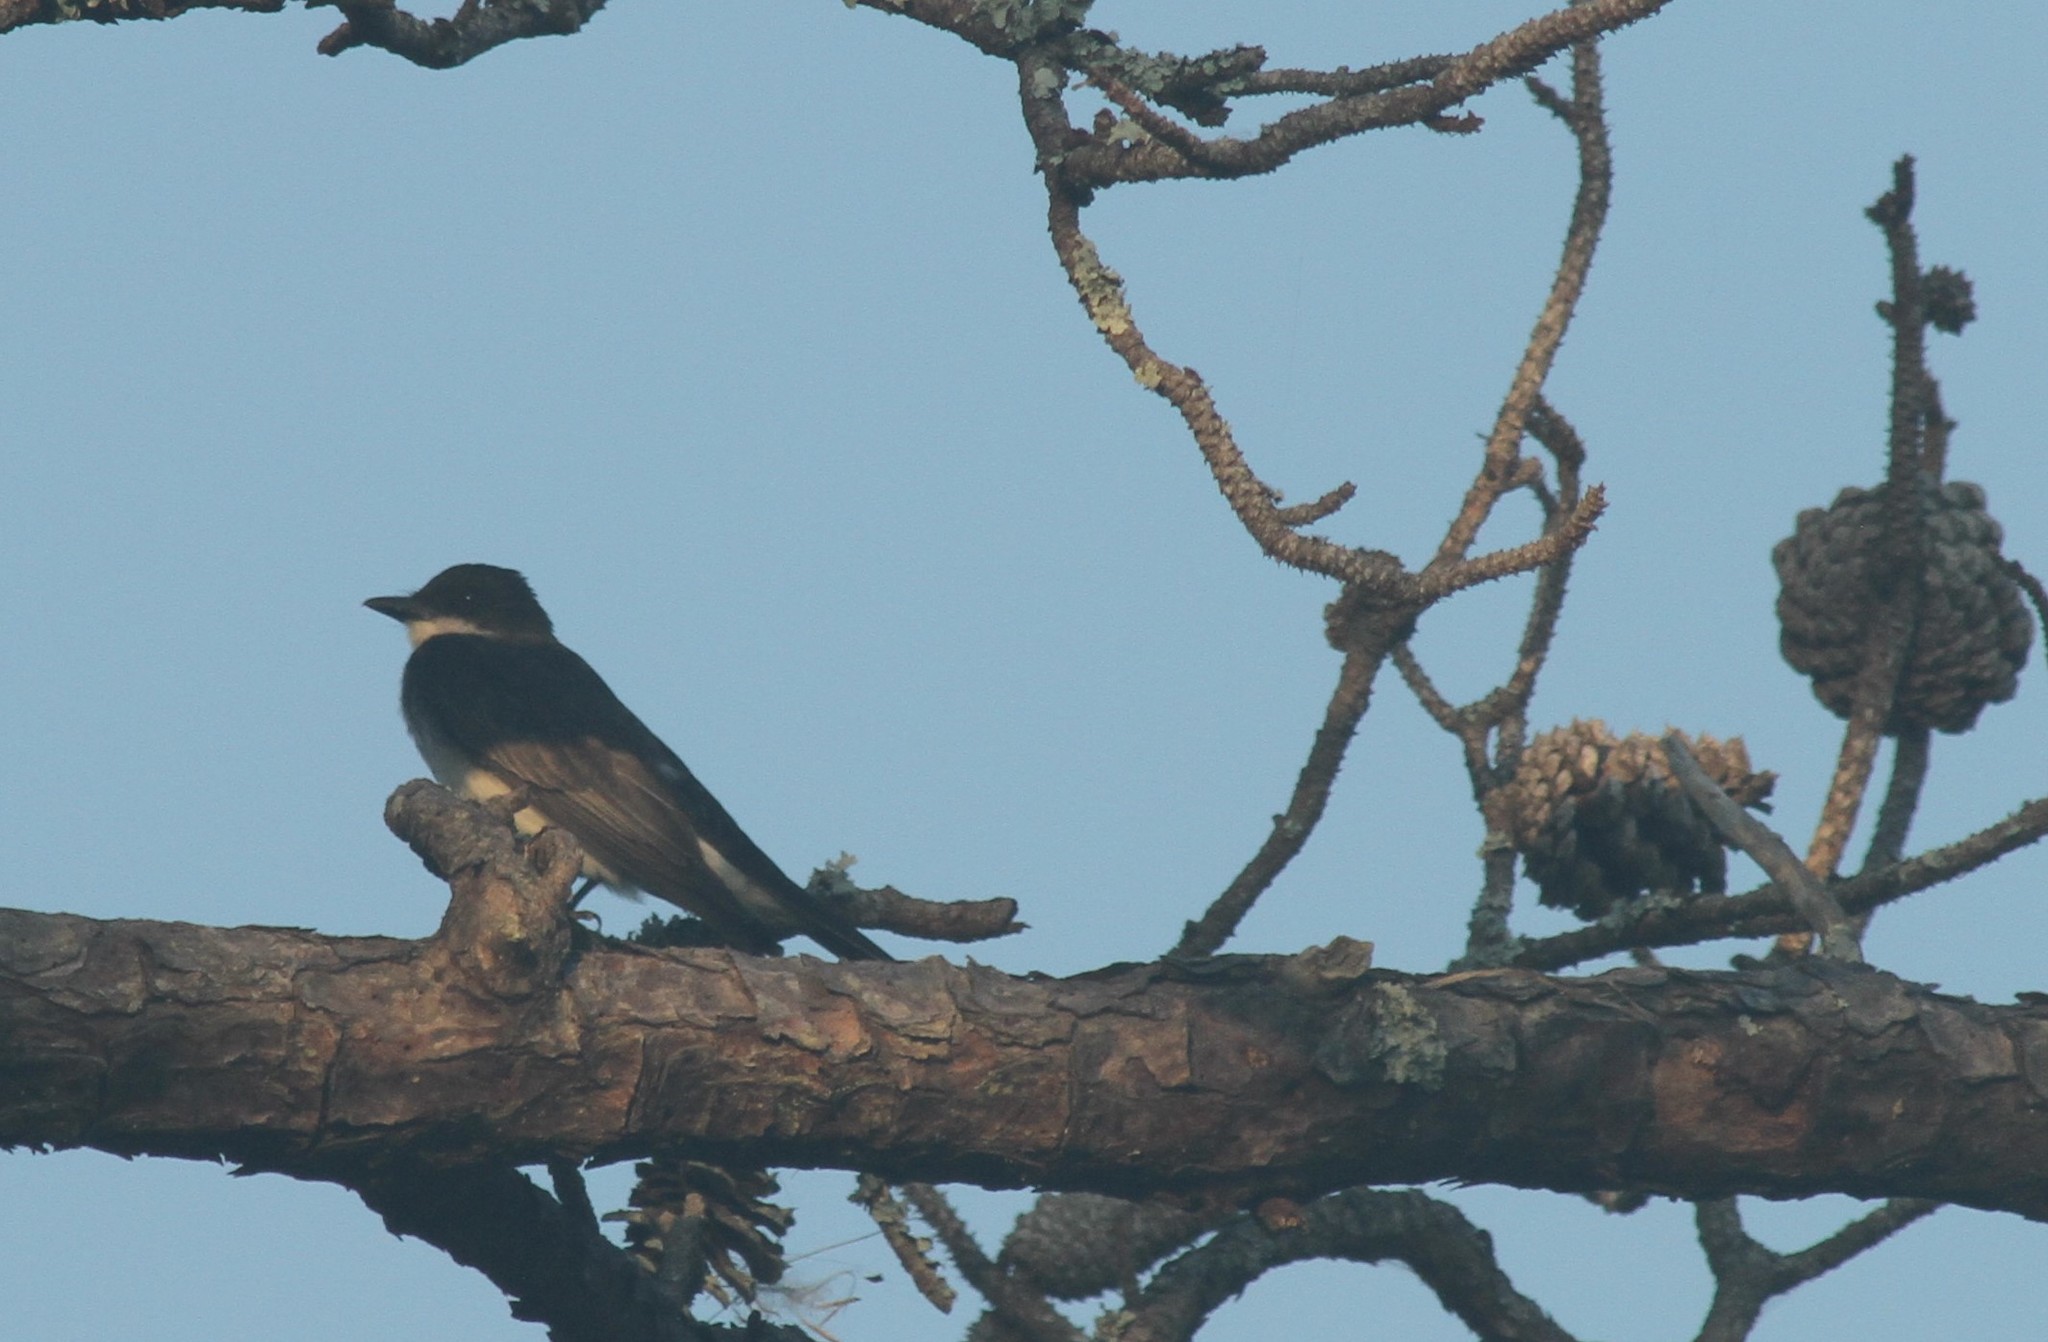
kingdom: Animalia
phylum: Chordata
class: Aves
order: Passeriformes
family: Tyrannidae
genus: Tyrannus
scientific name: Tyrannus tyrannus
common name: Eastern kingbird
